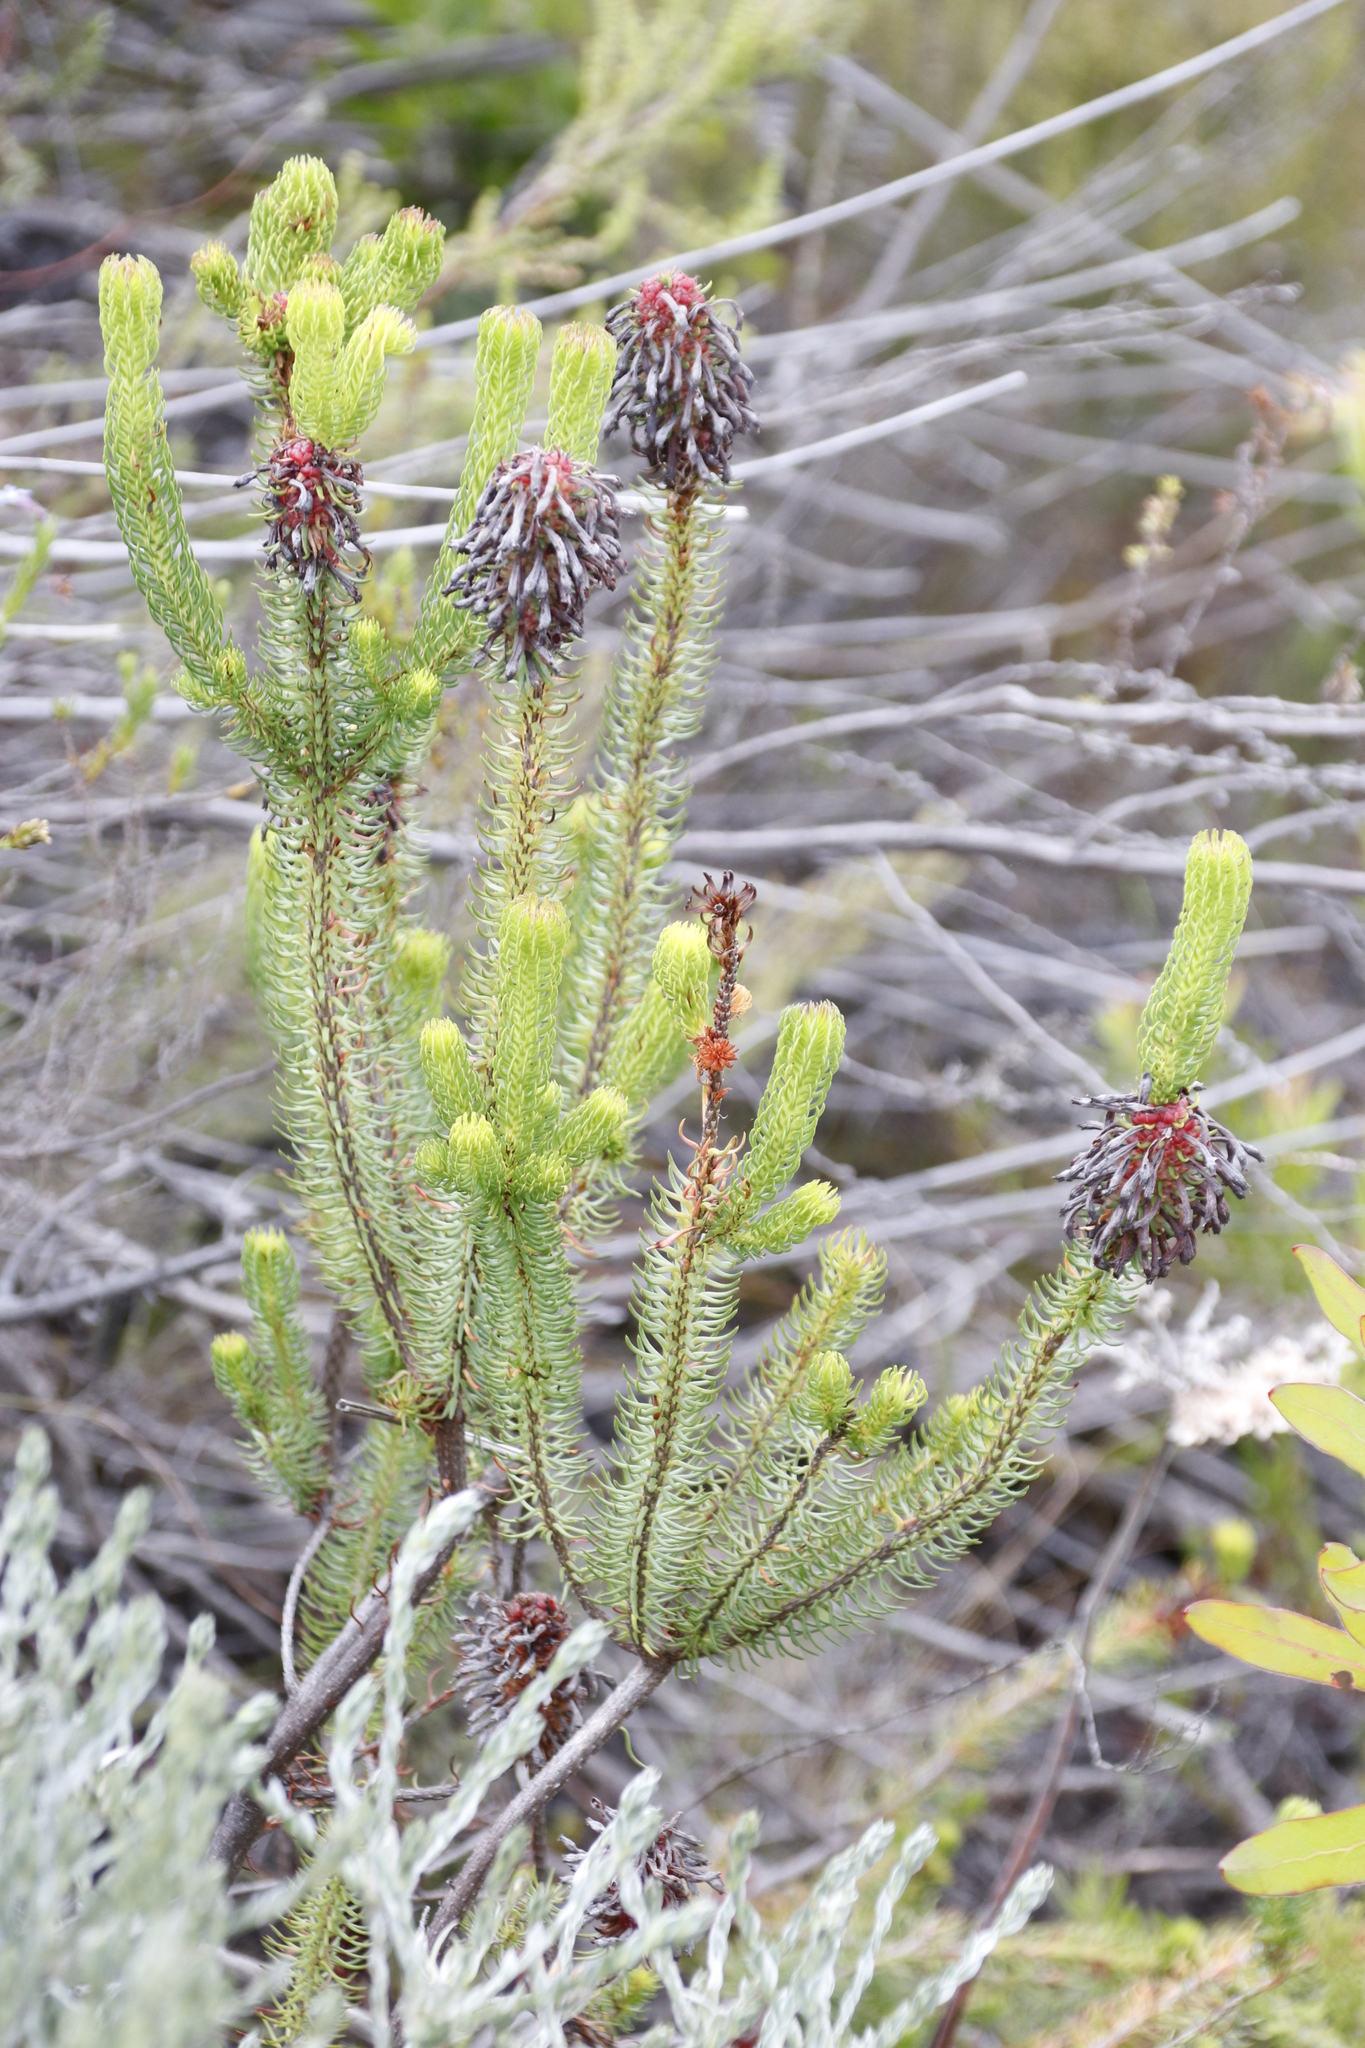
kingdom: Plantae
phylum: Tracheophyta
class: Magnoliopsida
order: Ericales
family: Ericaceae
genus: Erica
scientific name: Erica sessiliflora
